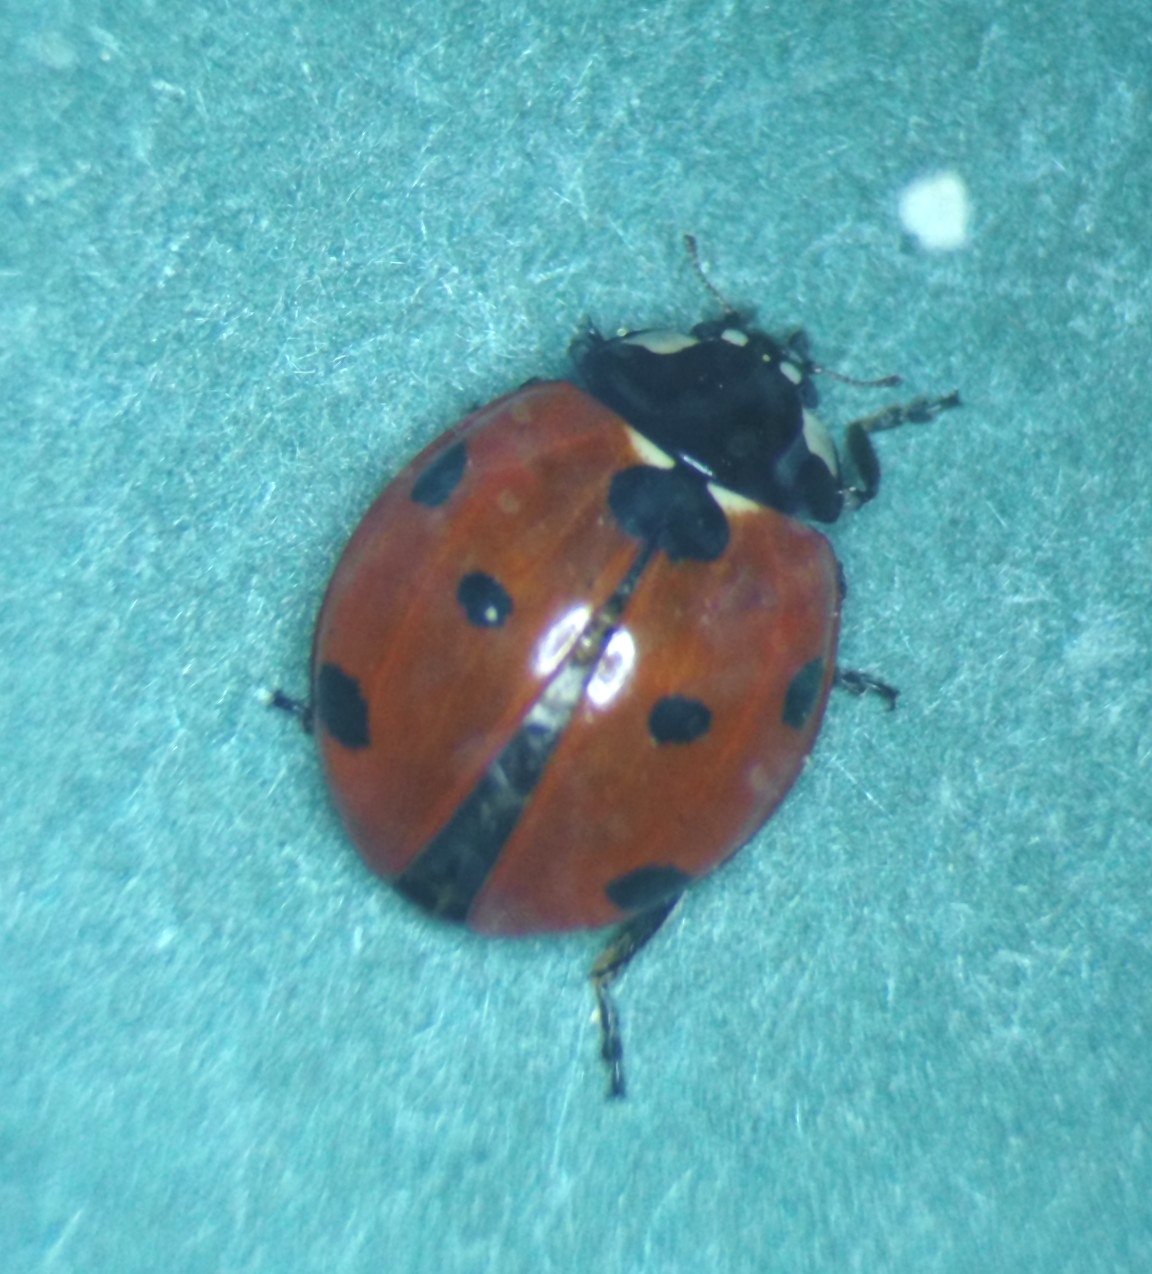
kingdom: Animalia
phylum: Arthropoda
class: Insecta
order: Coleoptera
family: Coccinellidae
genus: Coccinella
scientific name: Coccinella septempunctata
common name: Sevenspotted lady beetle
